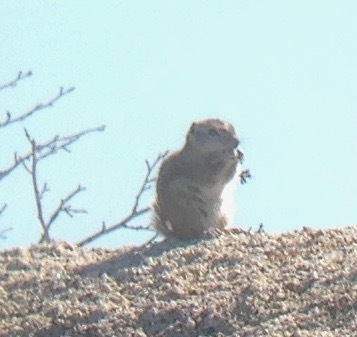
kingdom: Animalia
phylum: Chordata
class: Mammalia
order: Rodentia
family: Sciuridae
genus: Ammospermophilus
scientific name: Ammospermophilus leucurus
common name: White-tailed antelope squirrel
